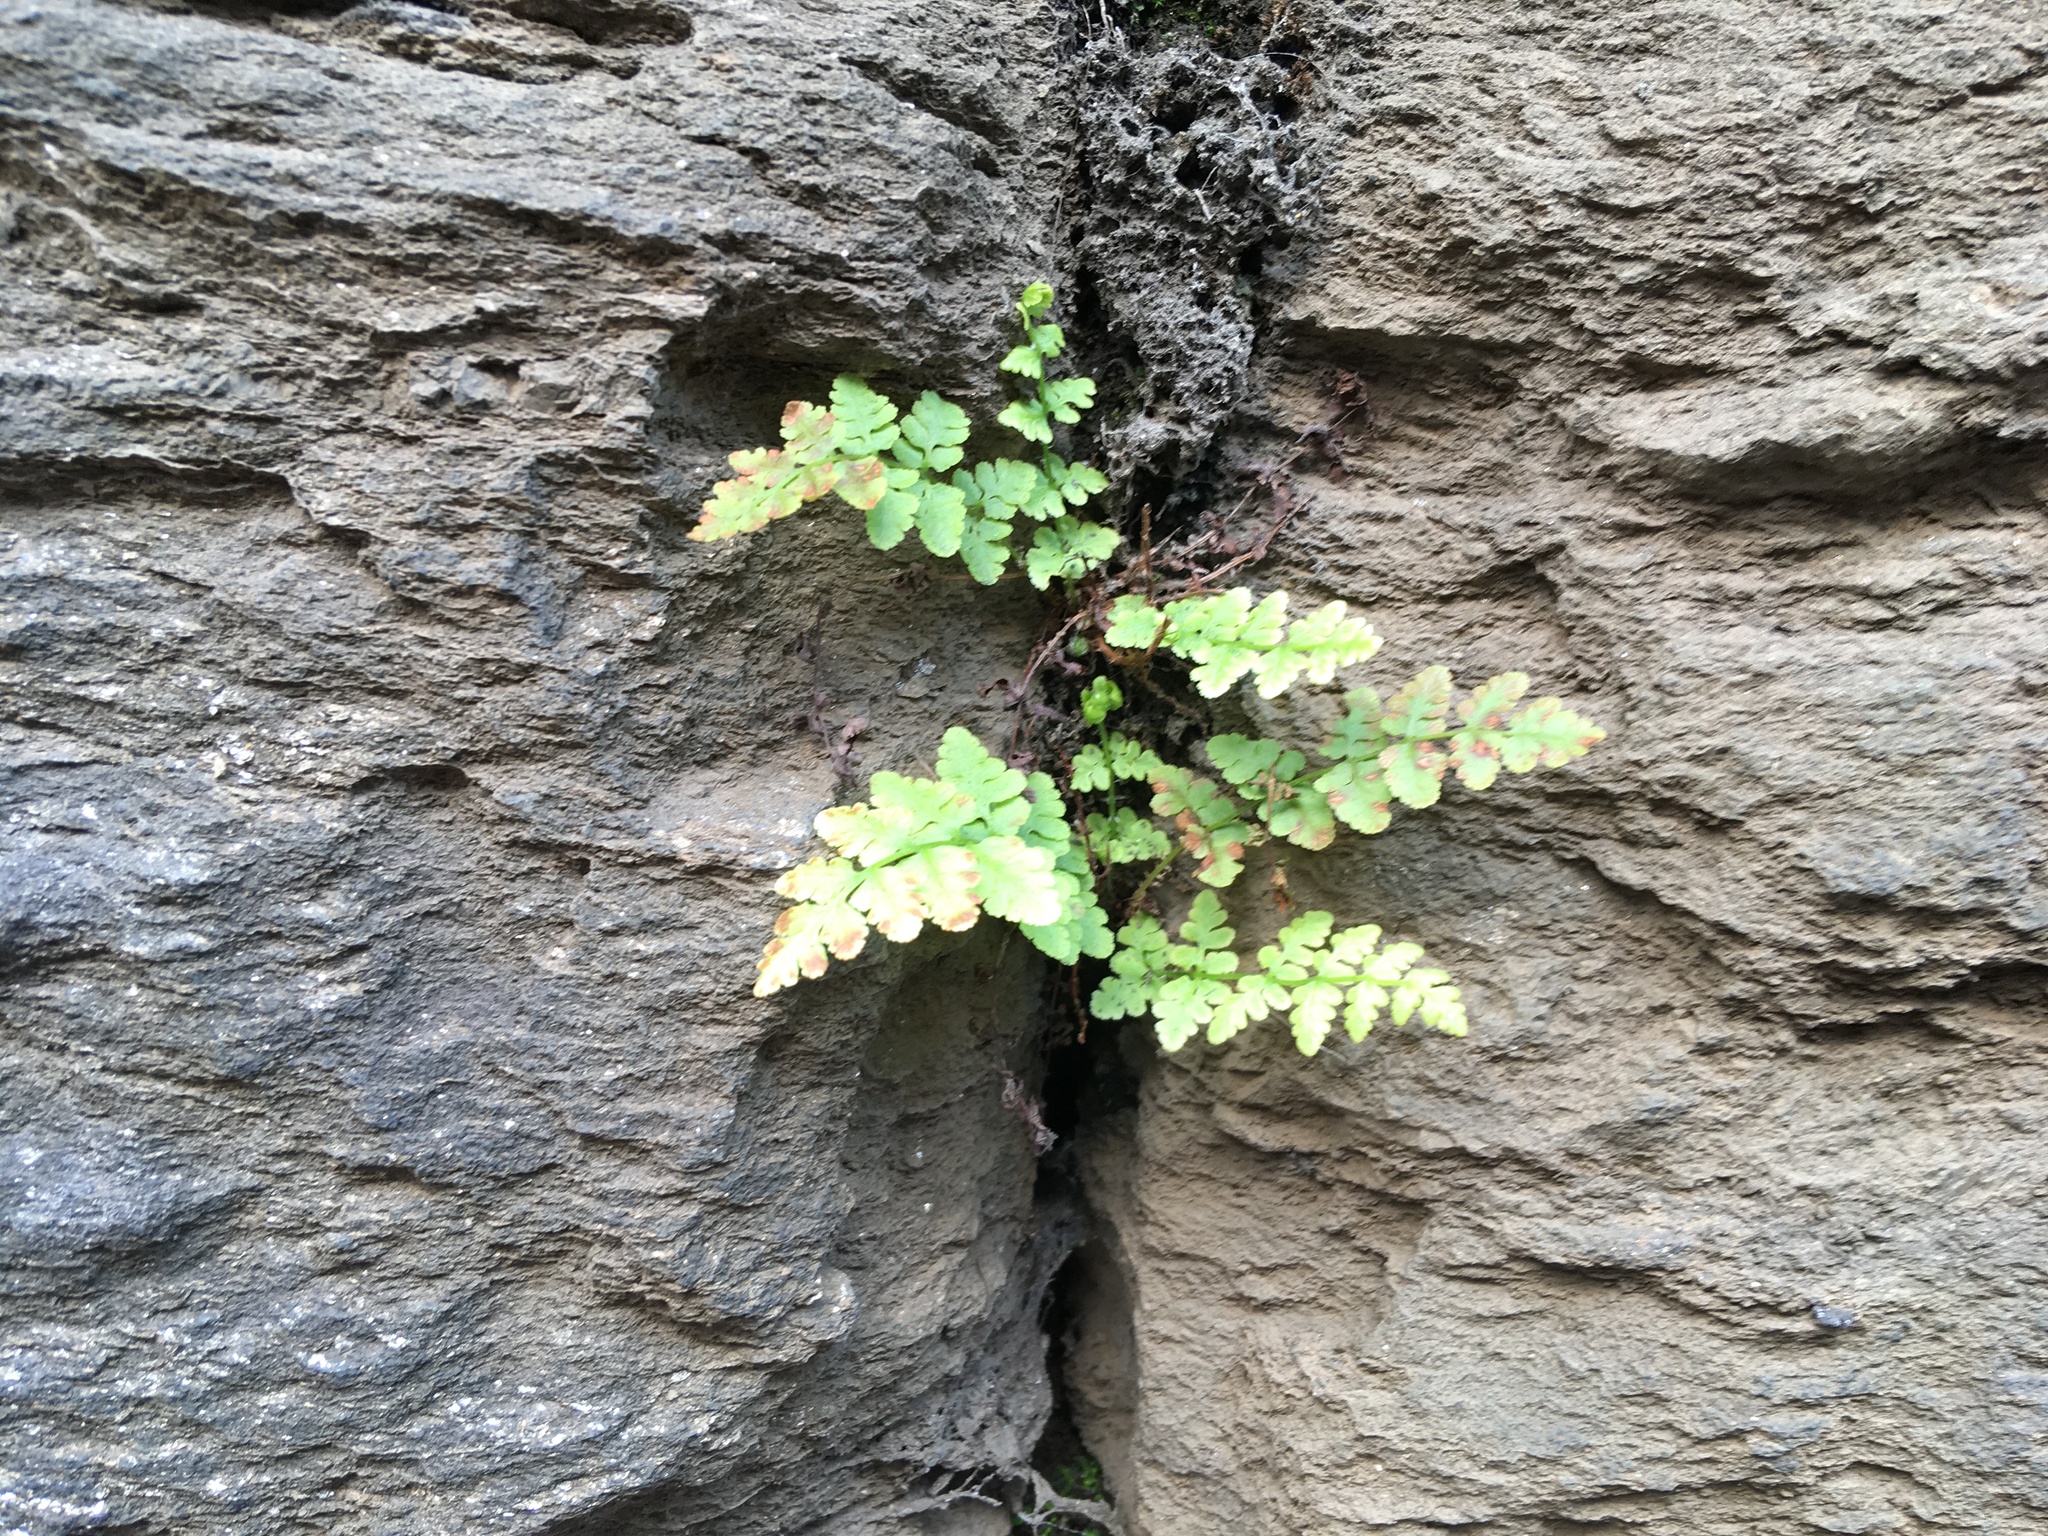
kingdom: Plantae
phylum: Tracheophyta
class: Polypodiopsida
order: Polypodiales
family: Woodsiaceae
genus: Physematium
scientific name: Physematium obtusum
